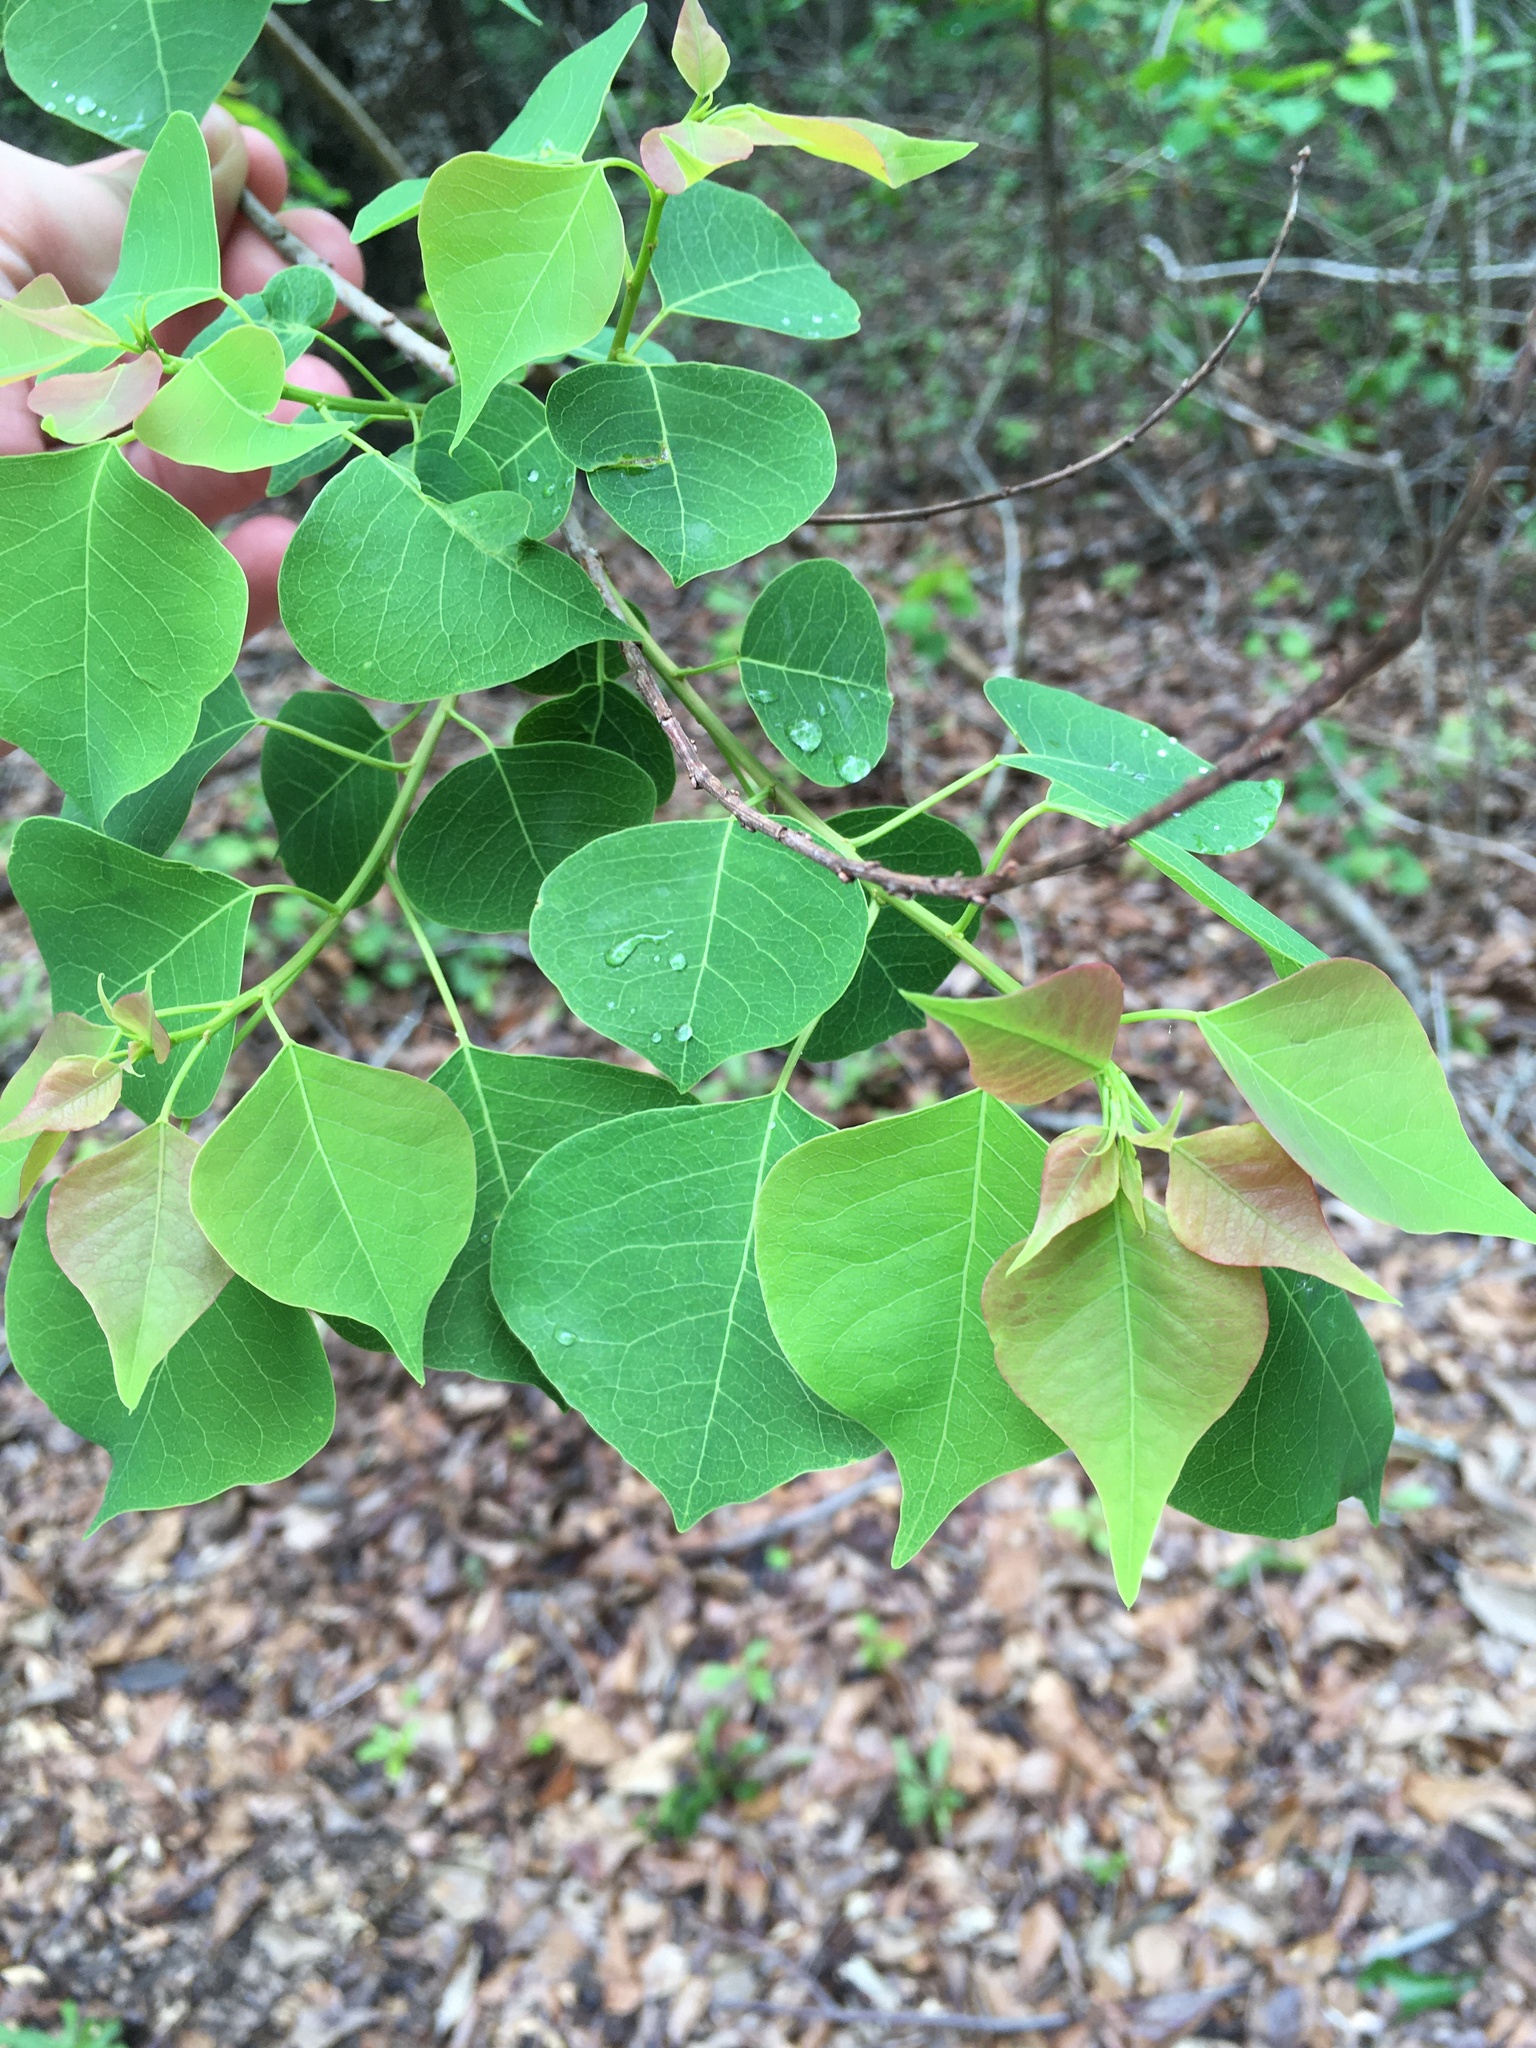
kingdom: Plantae
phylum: Tracheophyta
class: Magnoliopsida
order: Malpighiales
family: Euphorbiaceae
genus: Triadica
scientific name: Triadica sebifera
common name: Chinese tallow
